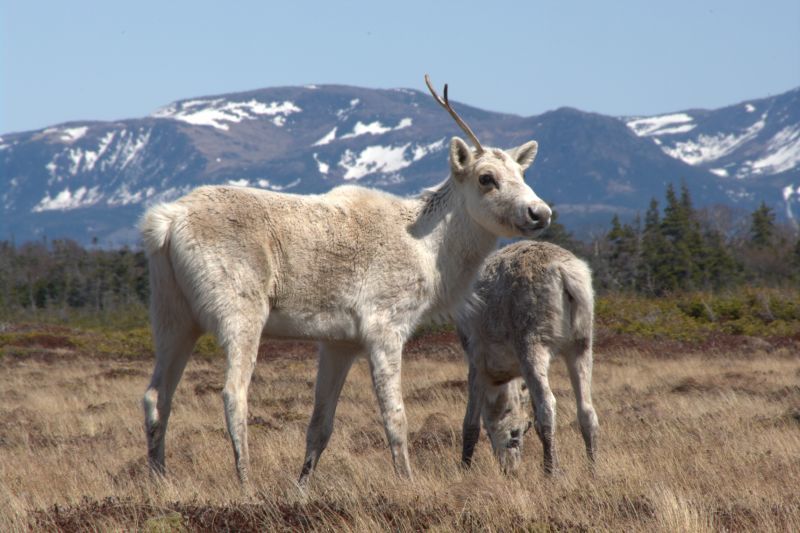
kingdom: Animalia
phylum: Chordata
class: Mammalia
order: Artiodactyla
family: Cervidae
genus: Rangifer
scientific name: Rangifer tarandus
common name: Reindeer
